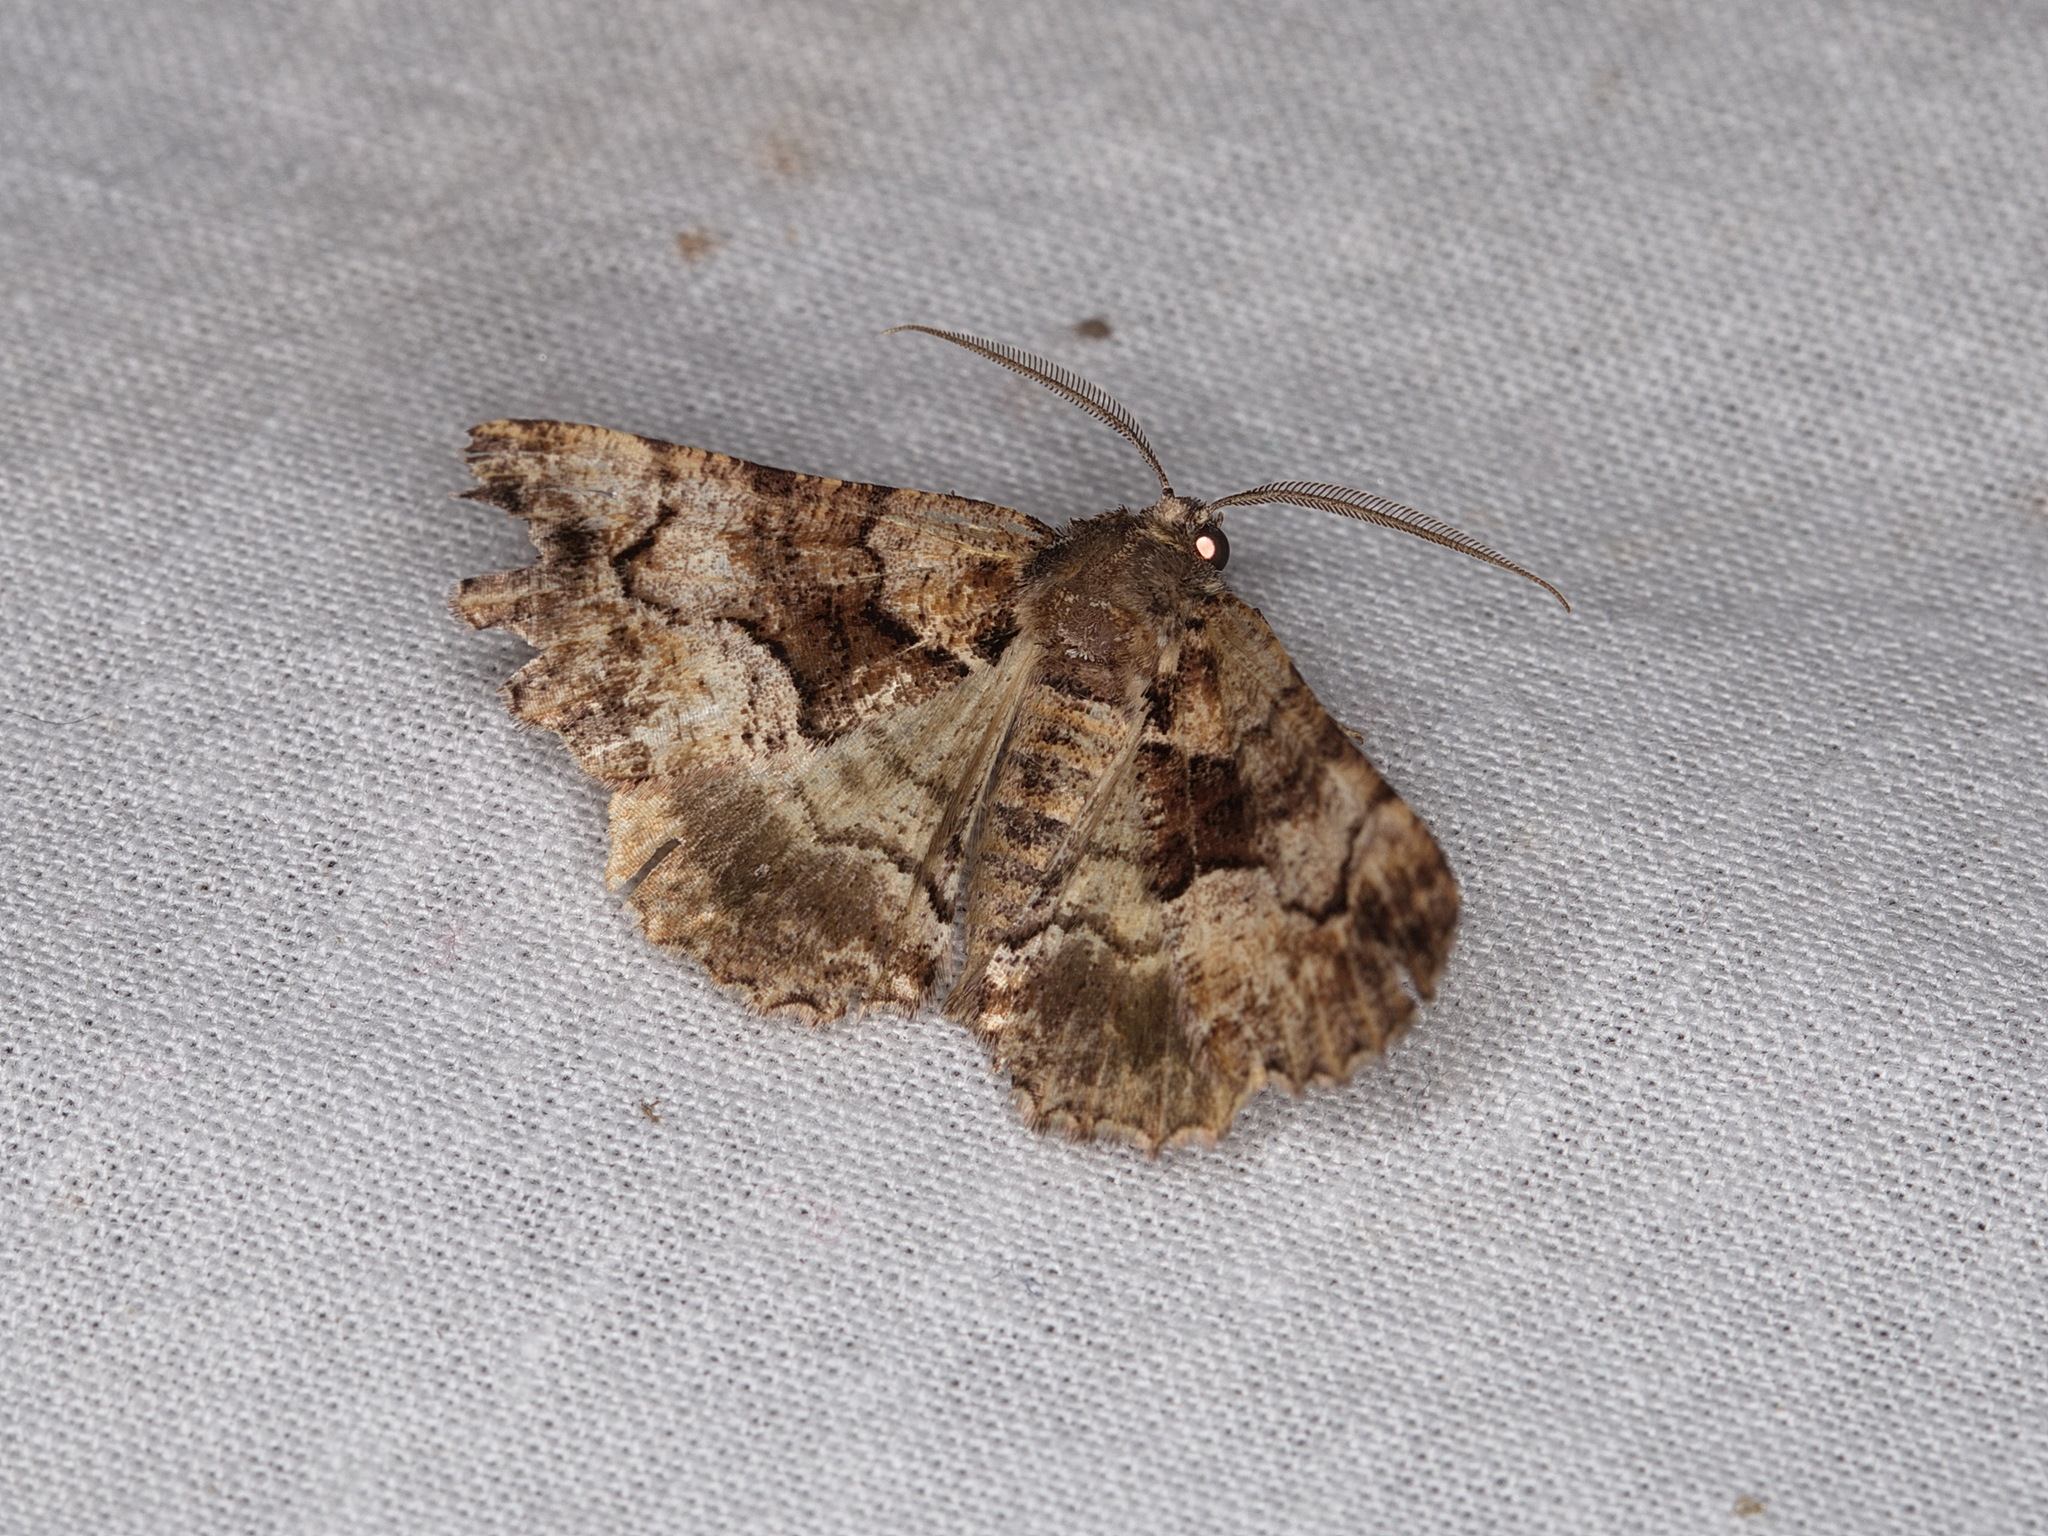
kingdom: Animalia
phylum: Arthropoda
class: Insecta
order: Lepidoptera
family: Geometridae
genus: Gastrina
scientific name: Gastrina cristaria
